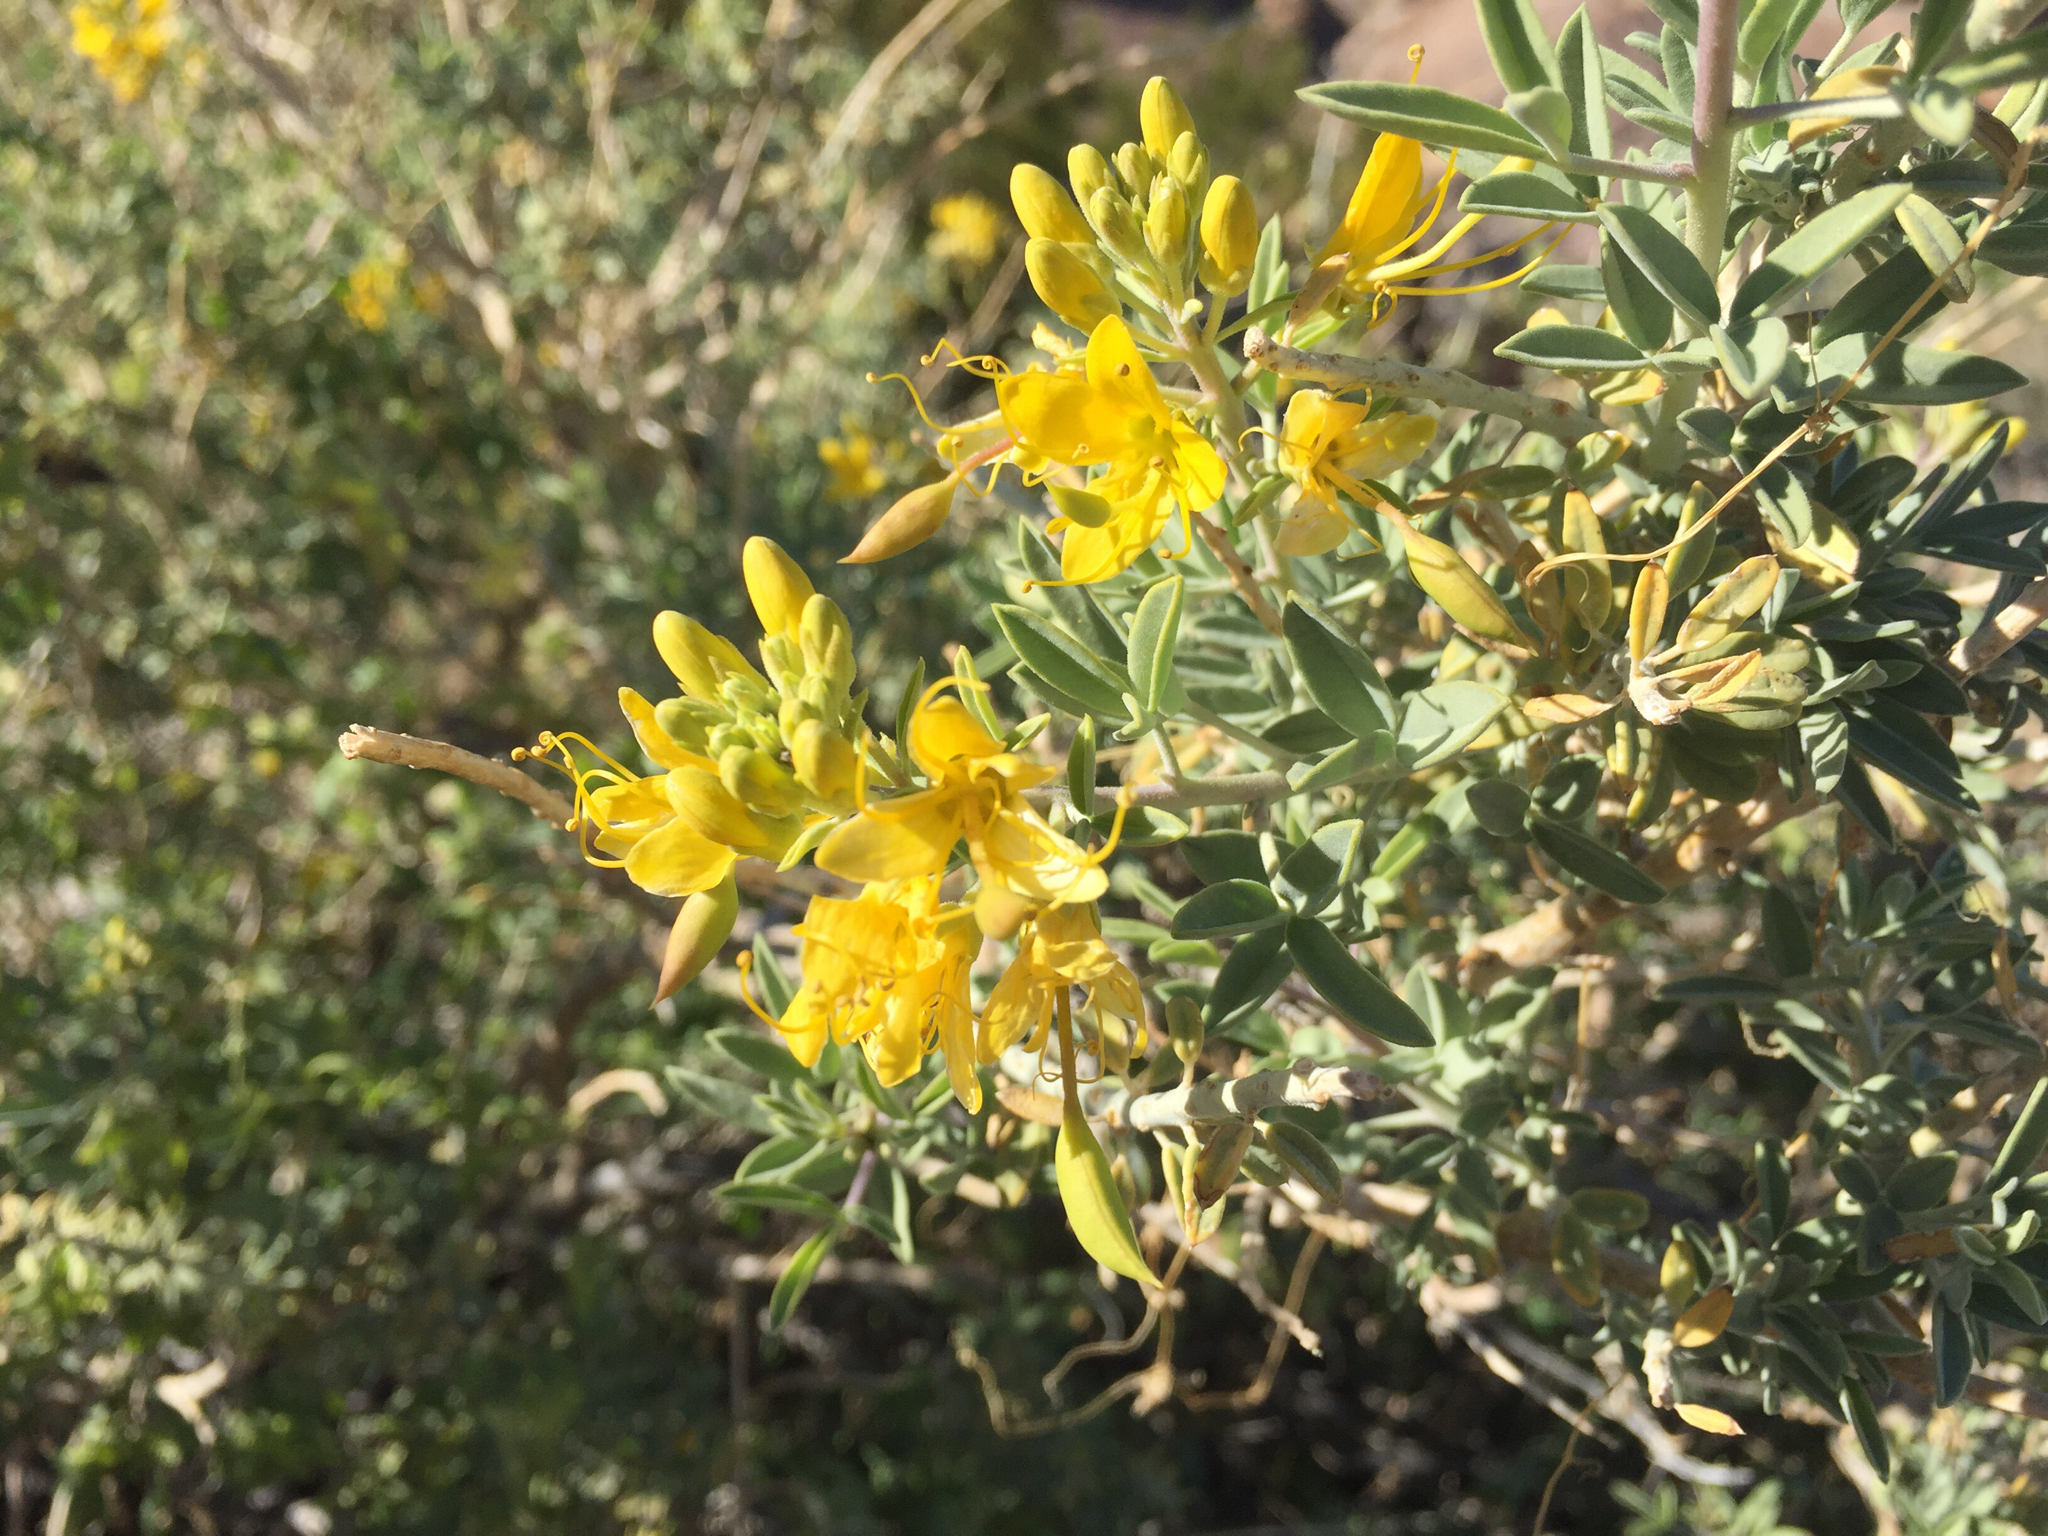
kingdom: Plantae
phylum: Tracheophyta
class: Magnoliopsida
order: Brassicales
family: Cleomaceae
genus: Cleomella
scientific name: Cleomella arborea
